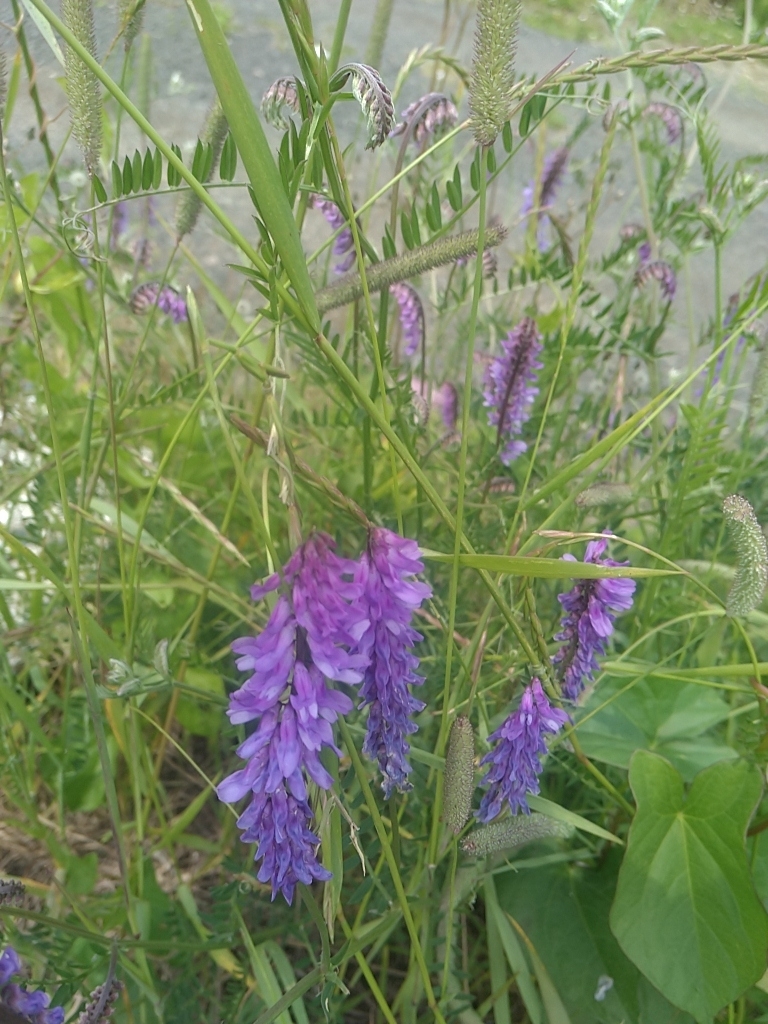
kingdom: Plantae
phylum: Tracheophyta
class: Magnoliopsida
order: Fabales
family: Fabaceae
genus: Vicia
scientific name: Vicia cracca
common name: Bird vetch
